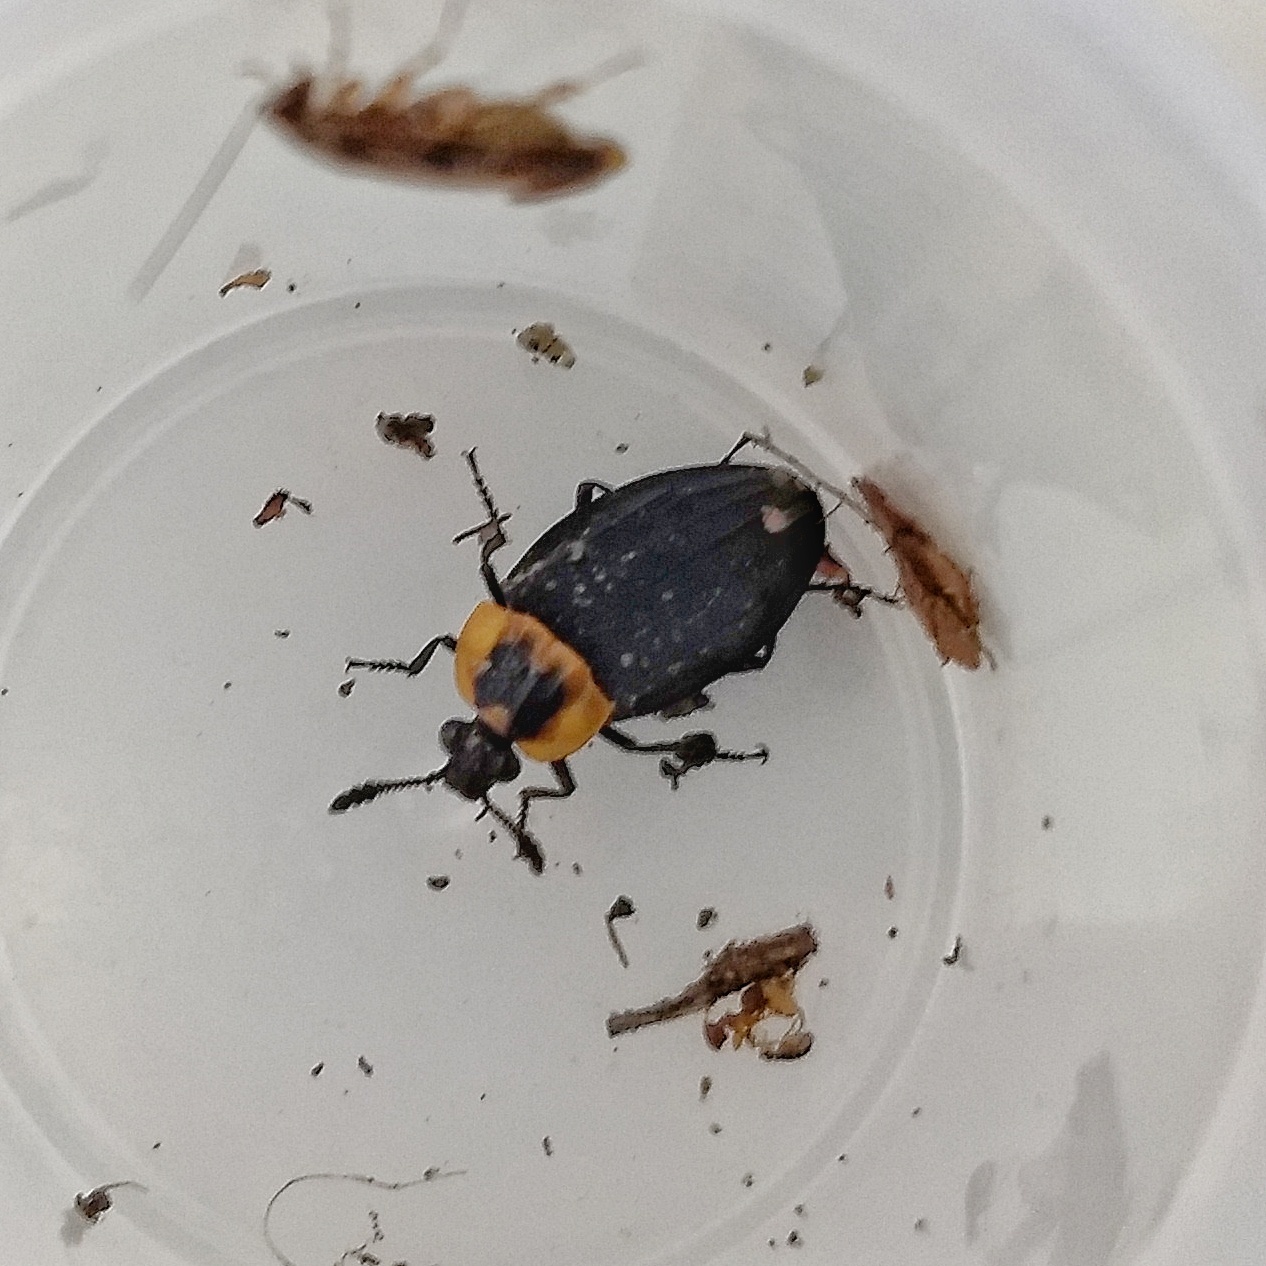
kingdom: Animalia
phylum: Arthropoda
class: Insecta
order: Coleoptera
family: Staphylinidae
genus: Oxelytrum
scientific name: Oxelytrum discicolle
